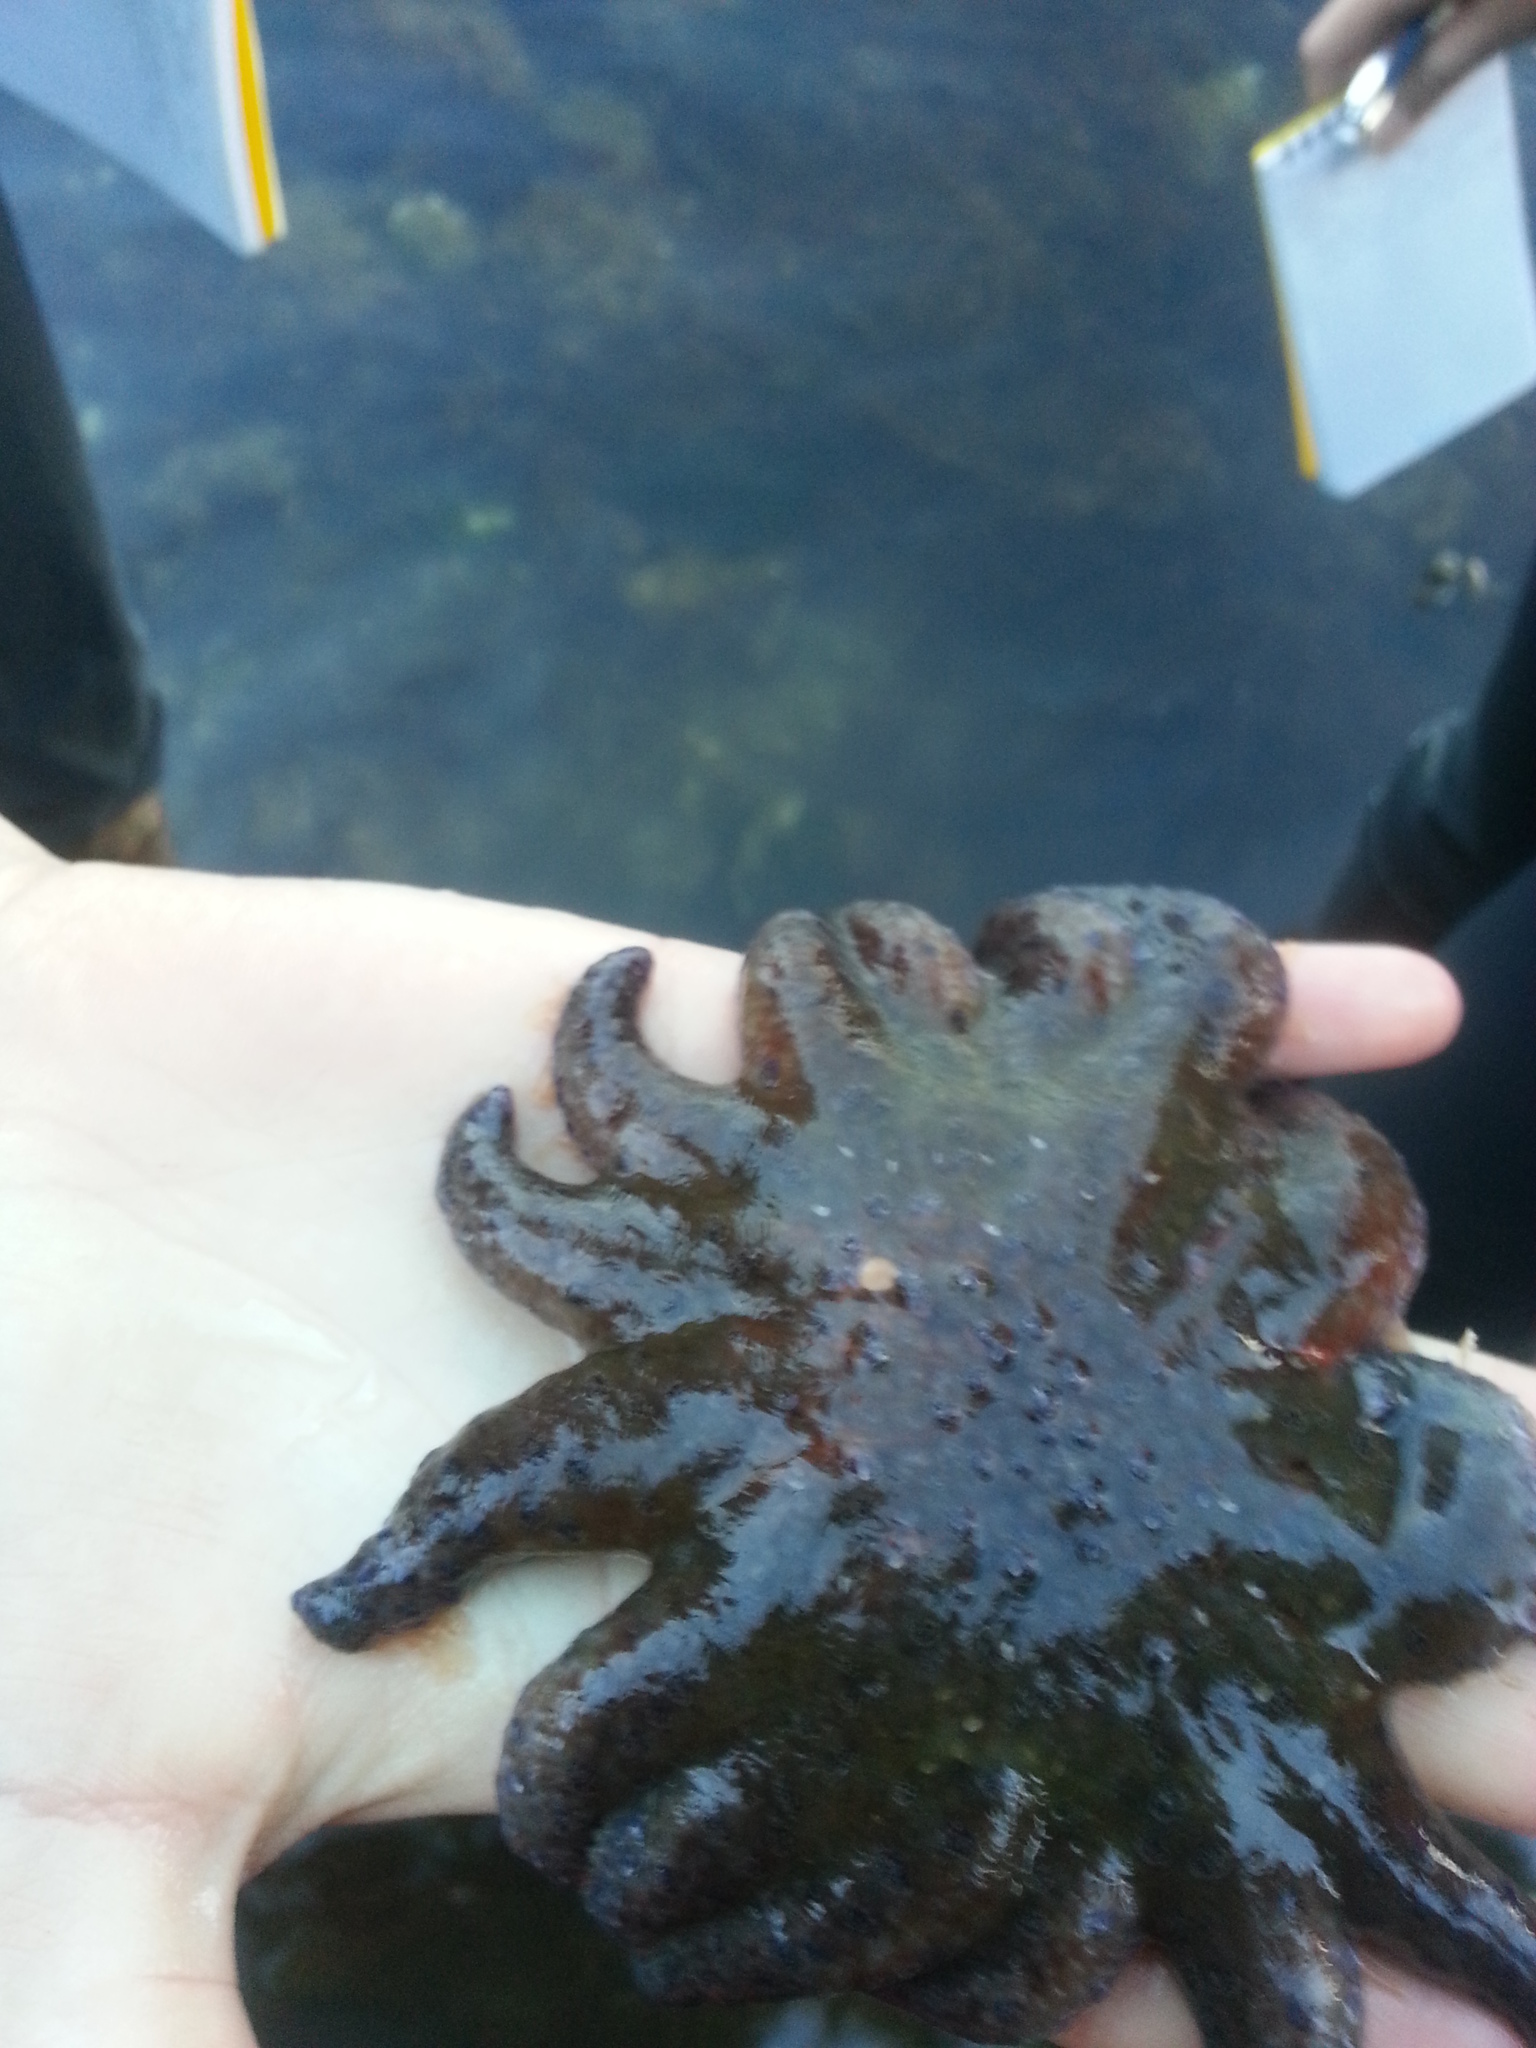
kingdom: Animalia
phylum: Echinodermata
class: Asteroidea
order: Forcipulatida
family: Asteriidae
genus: Pycnopodia
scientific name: Pycnopodia helianthoides
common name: Rag mop
